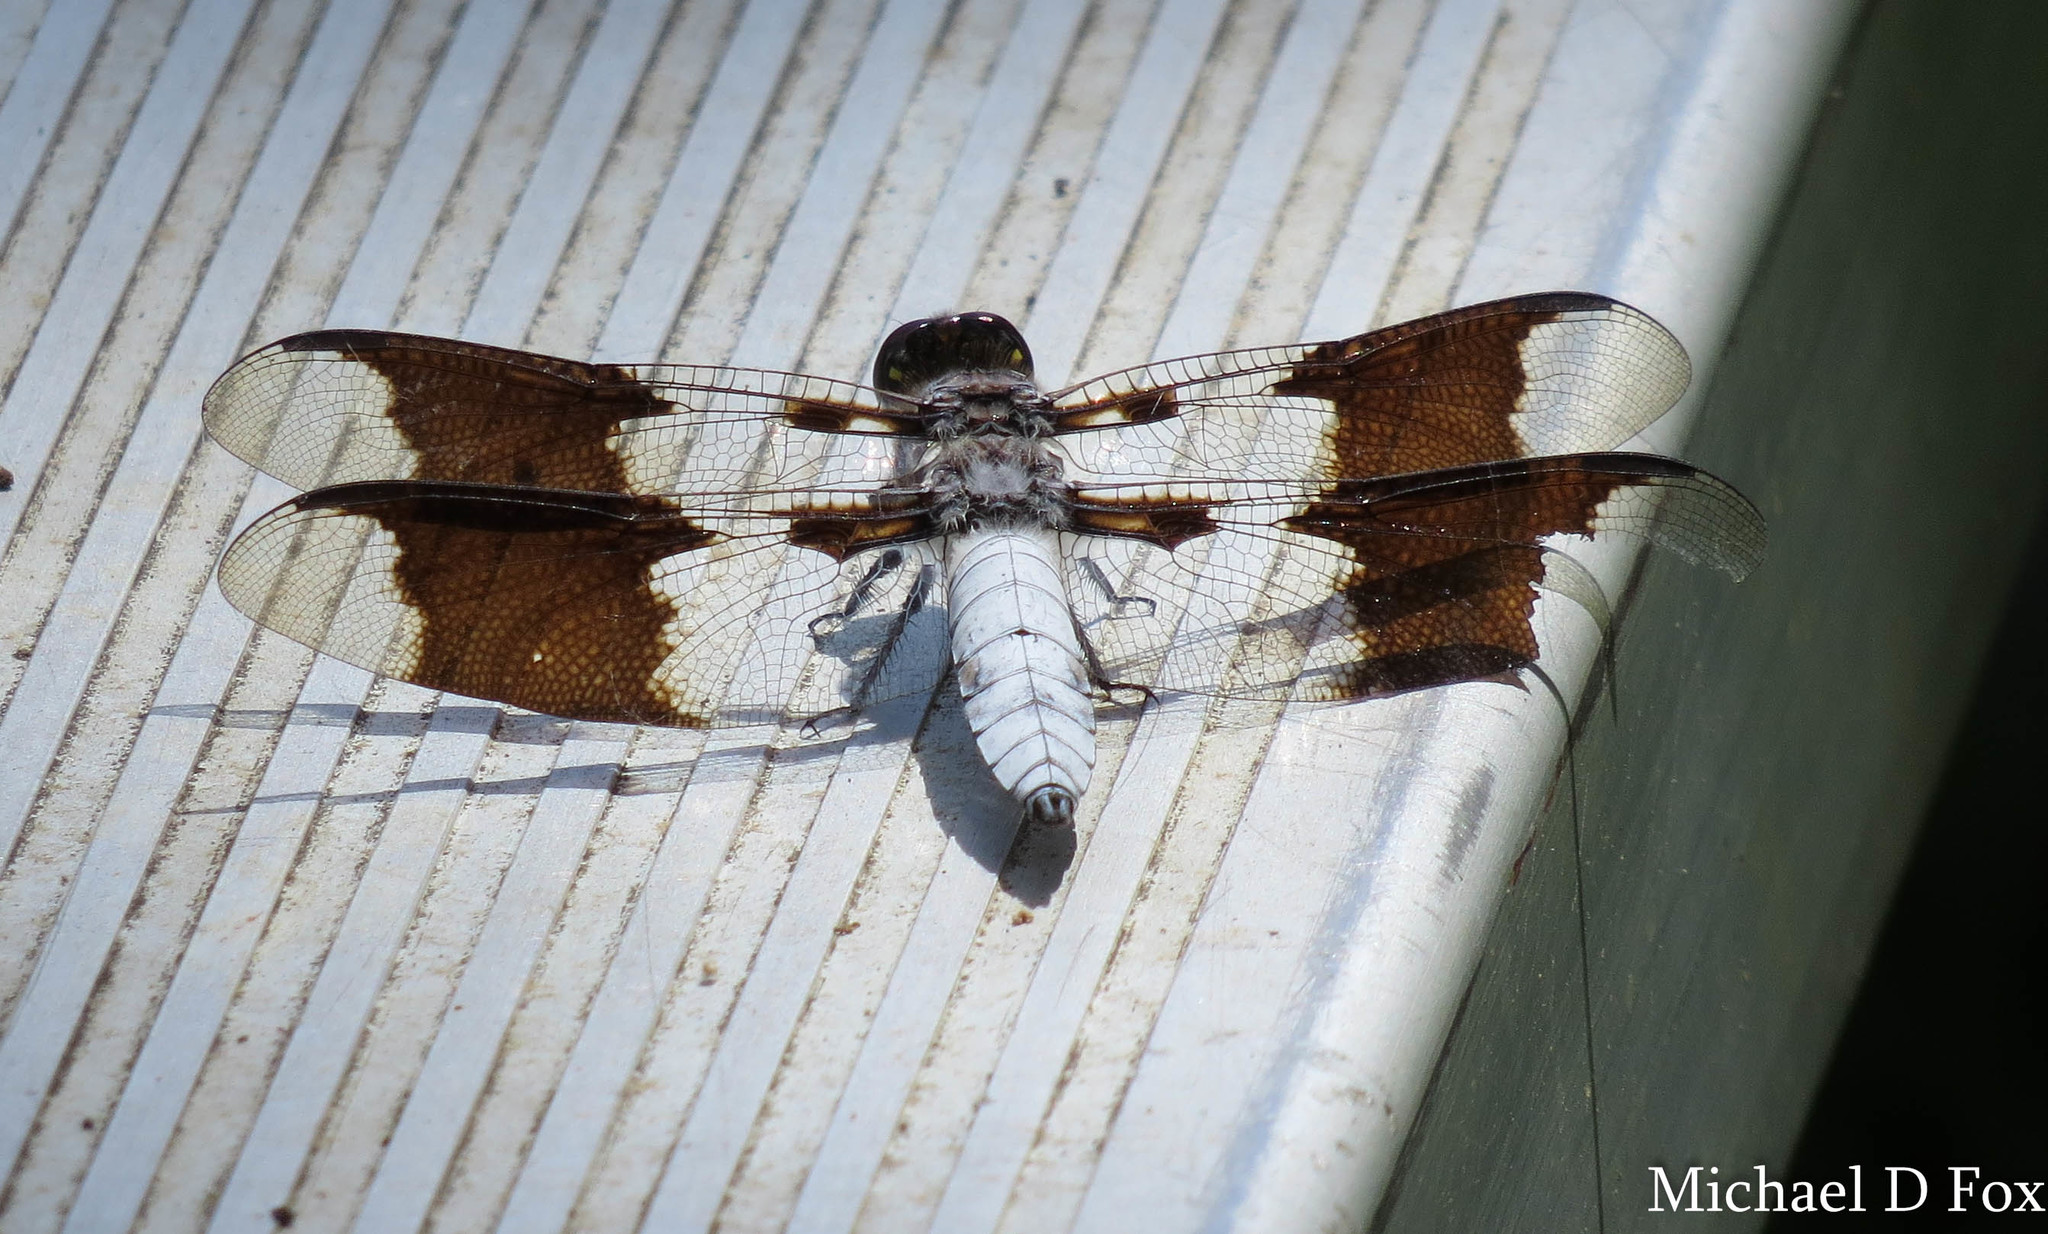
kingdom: Animalia
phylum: Arthropoda
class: Insecta
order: Odonata
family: Libellulidae
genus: Plathemis
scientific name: Plathemis lydia
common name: Common whitetail
